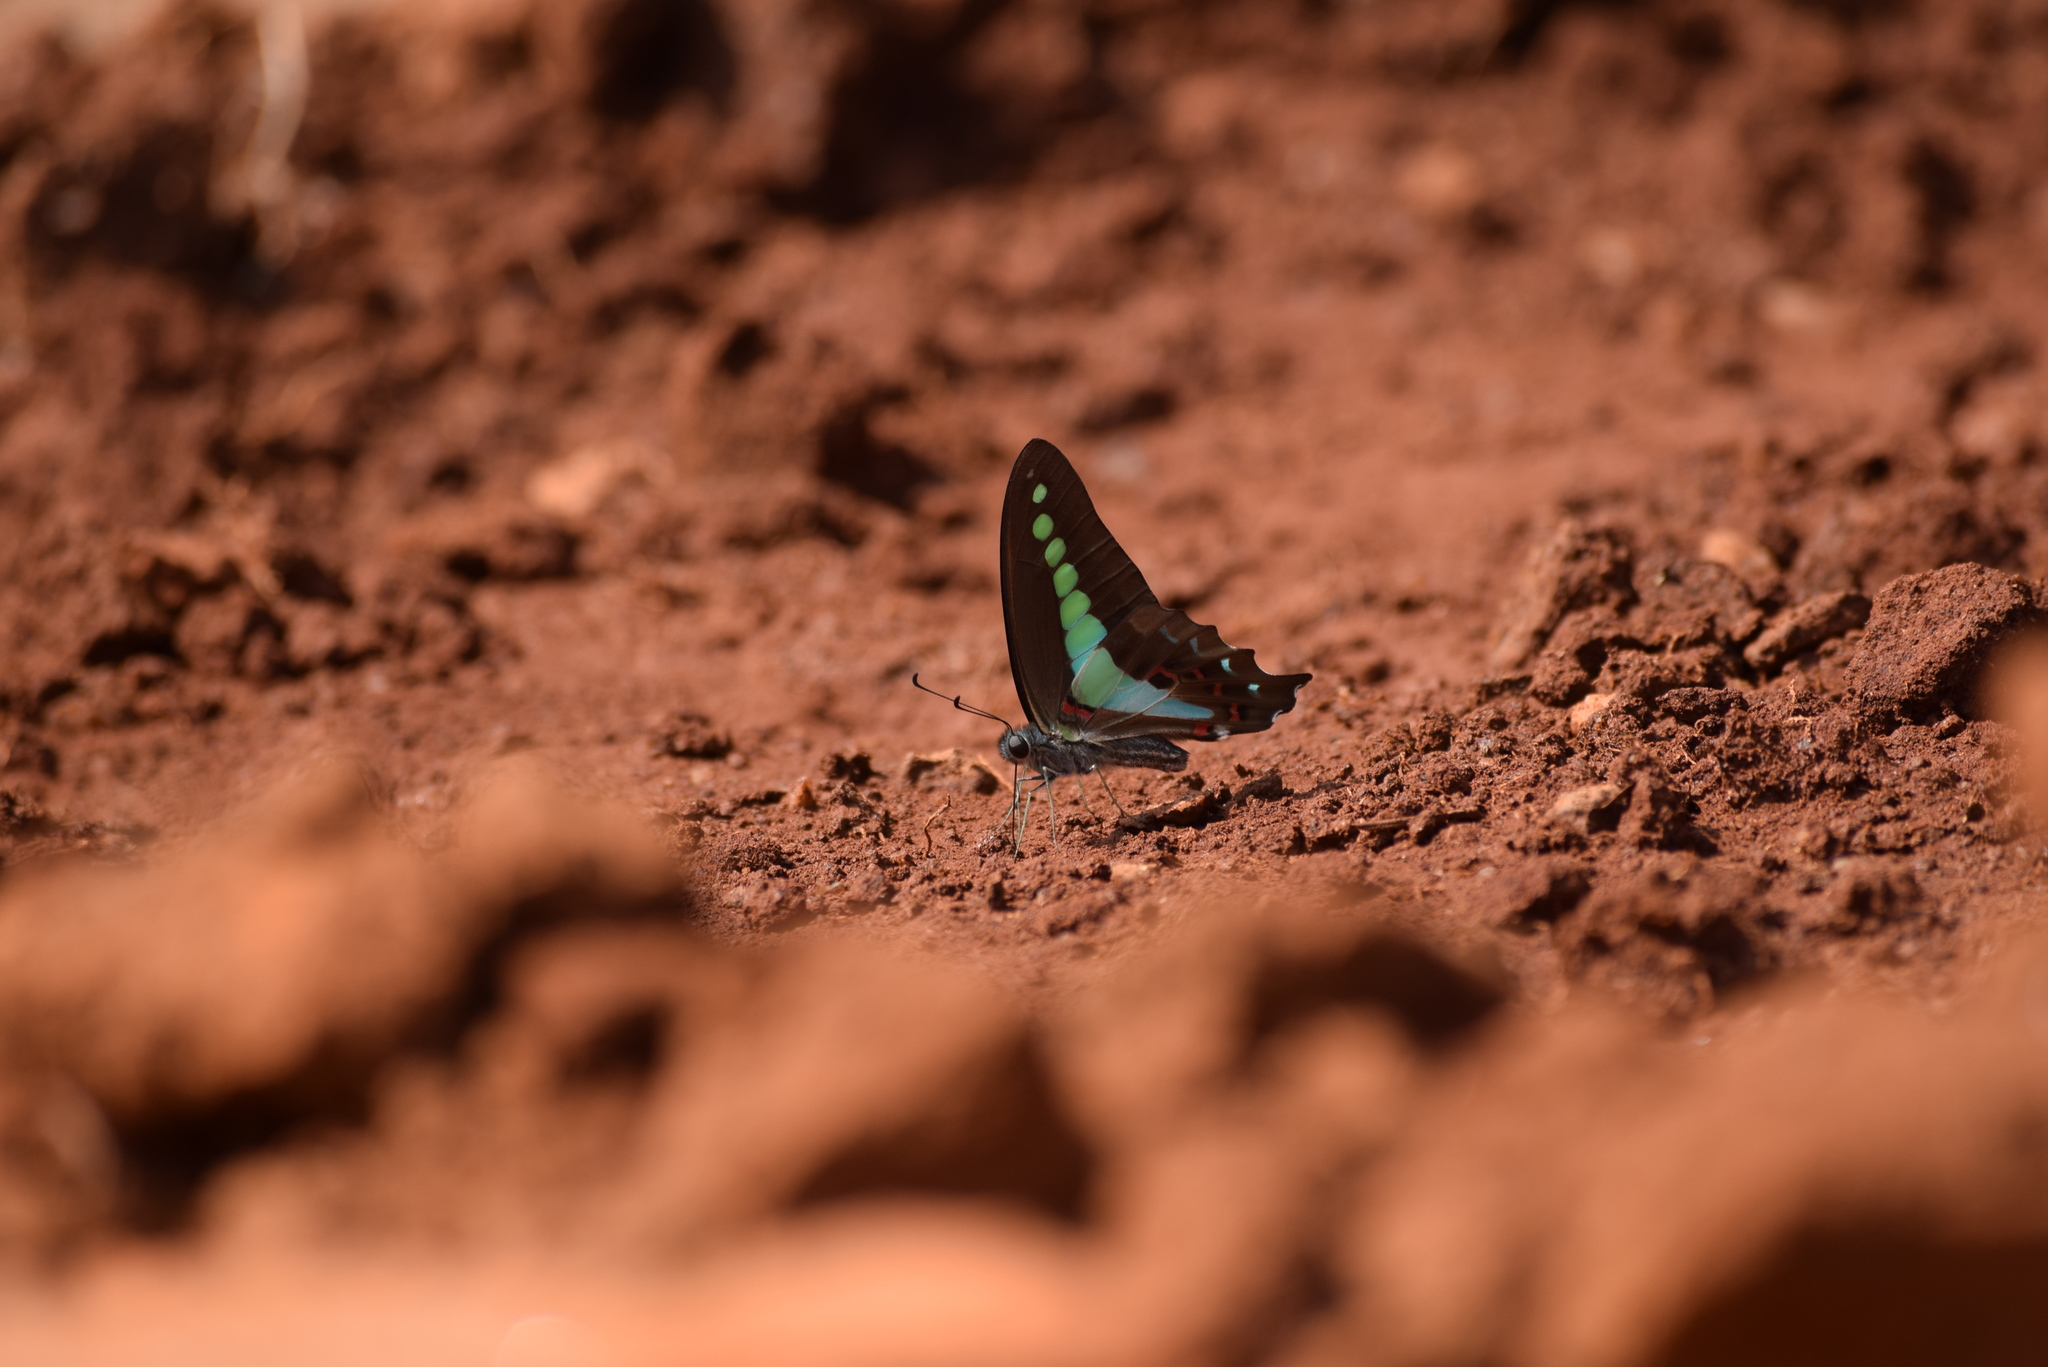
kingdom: Animalia
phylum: Arthropoda
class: Insecta
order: Lepidoptera
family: Papilionidae
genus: Graphium
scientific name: Graphium
